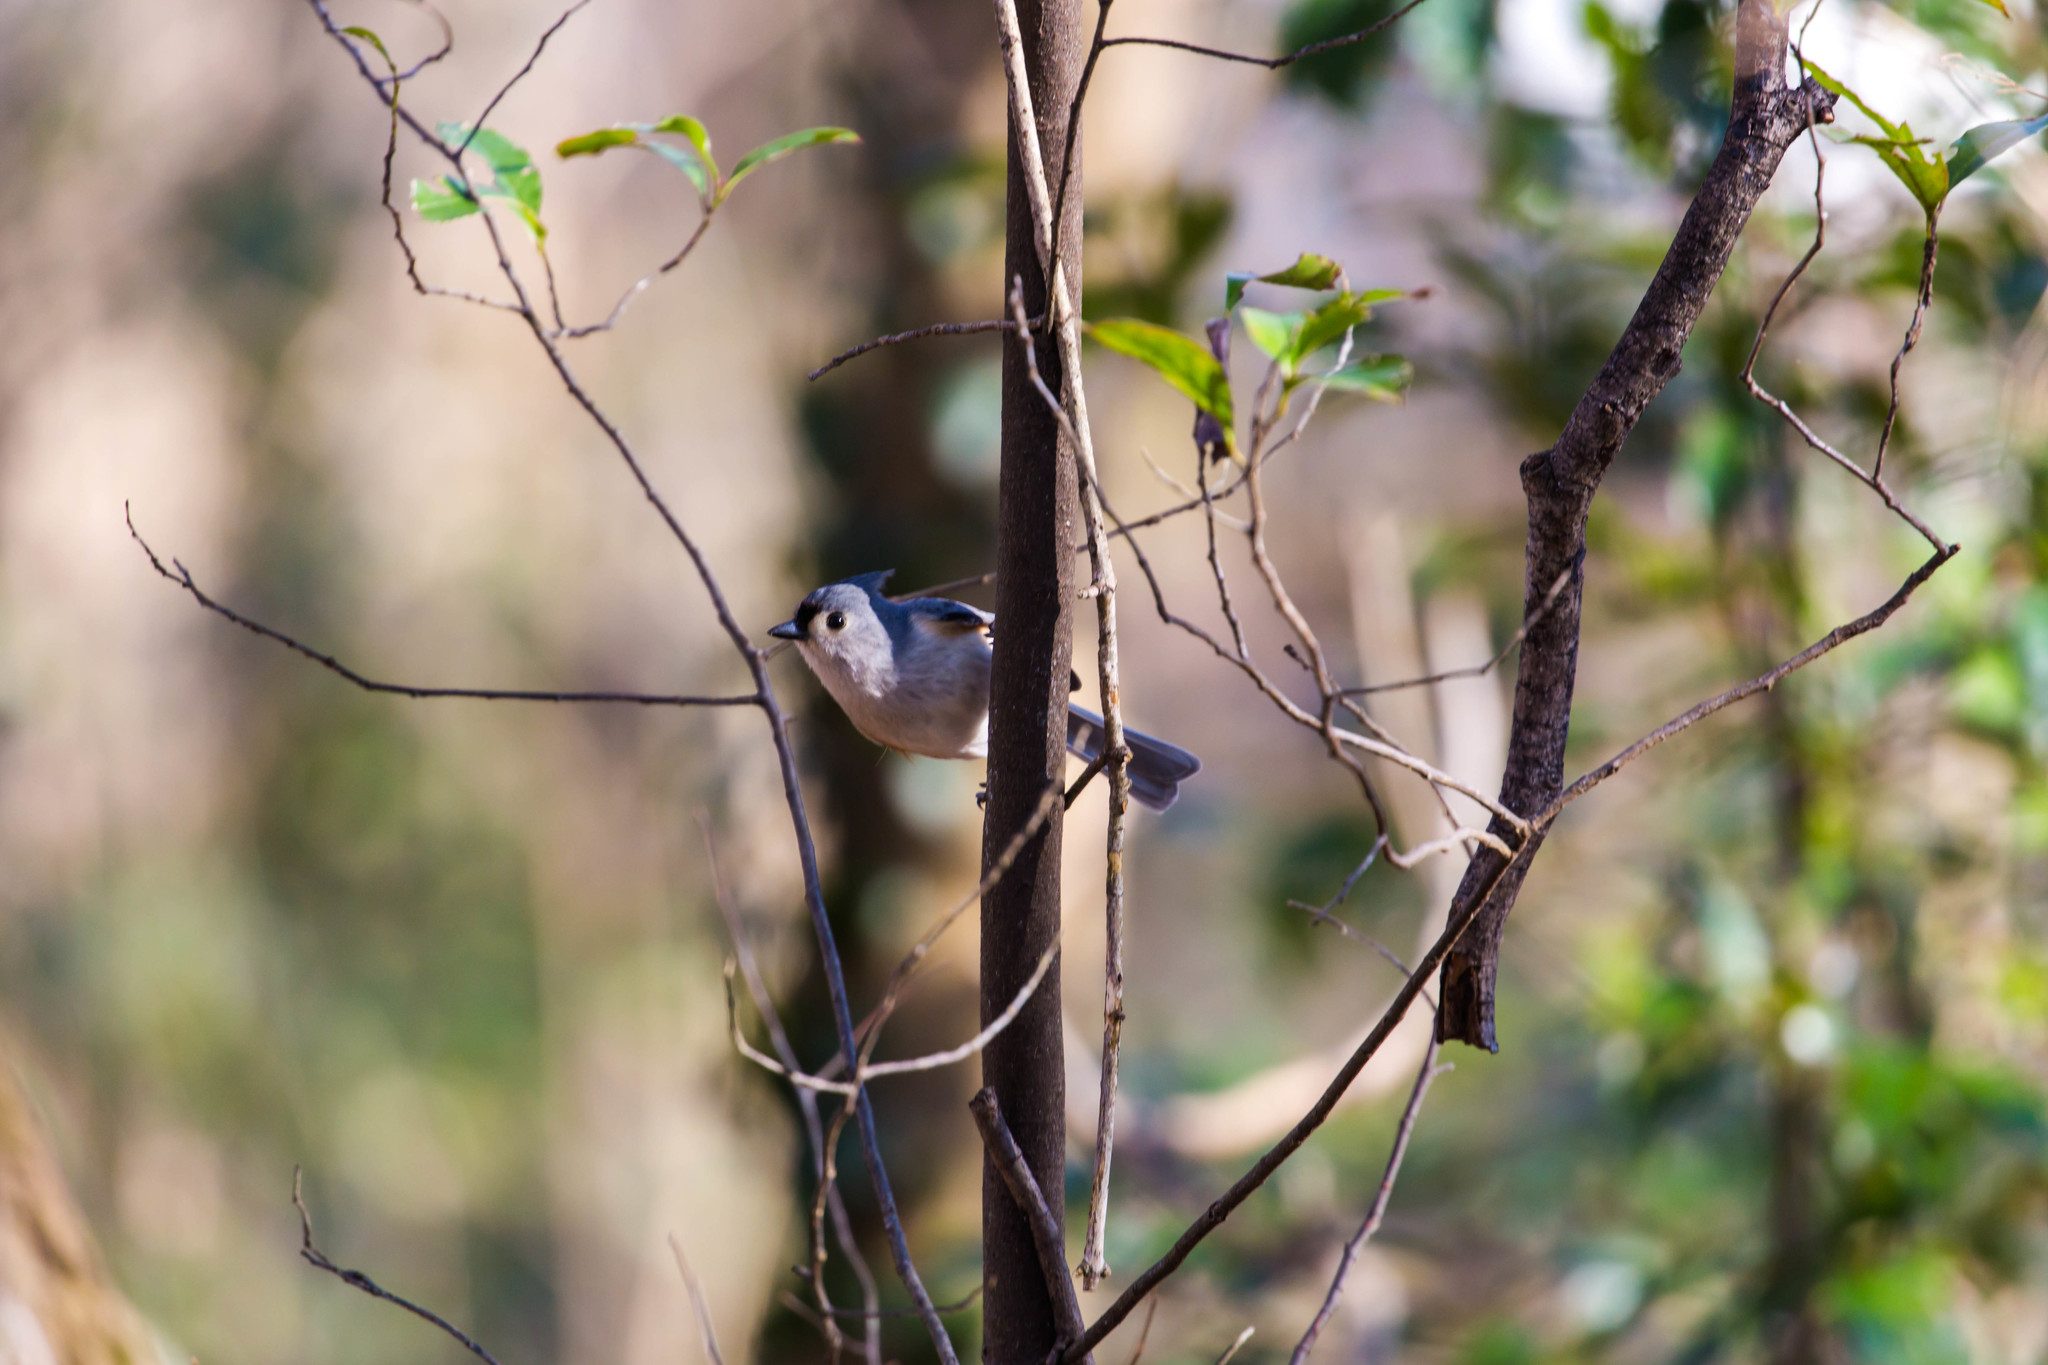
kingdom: Animalia
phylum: Chordata
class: Aves
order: Passeriformes
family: Paridae
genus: Baeolophus
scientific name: Baeolophus bicolor
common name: Tufted titmouse
